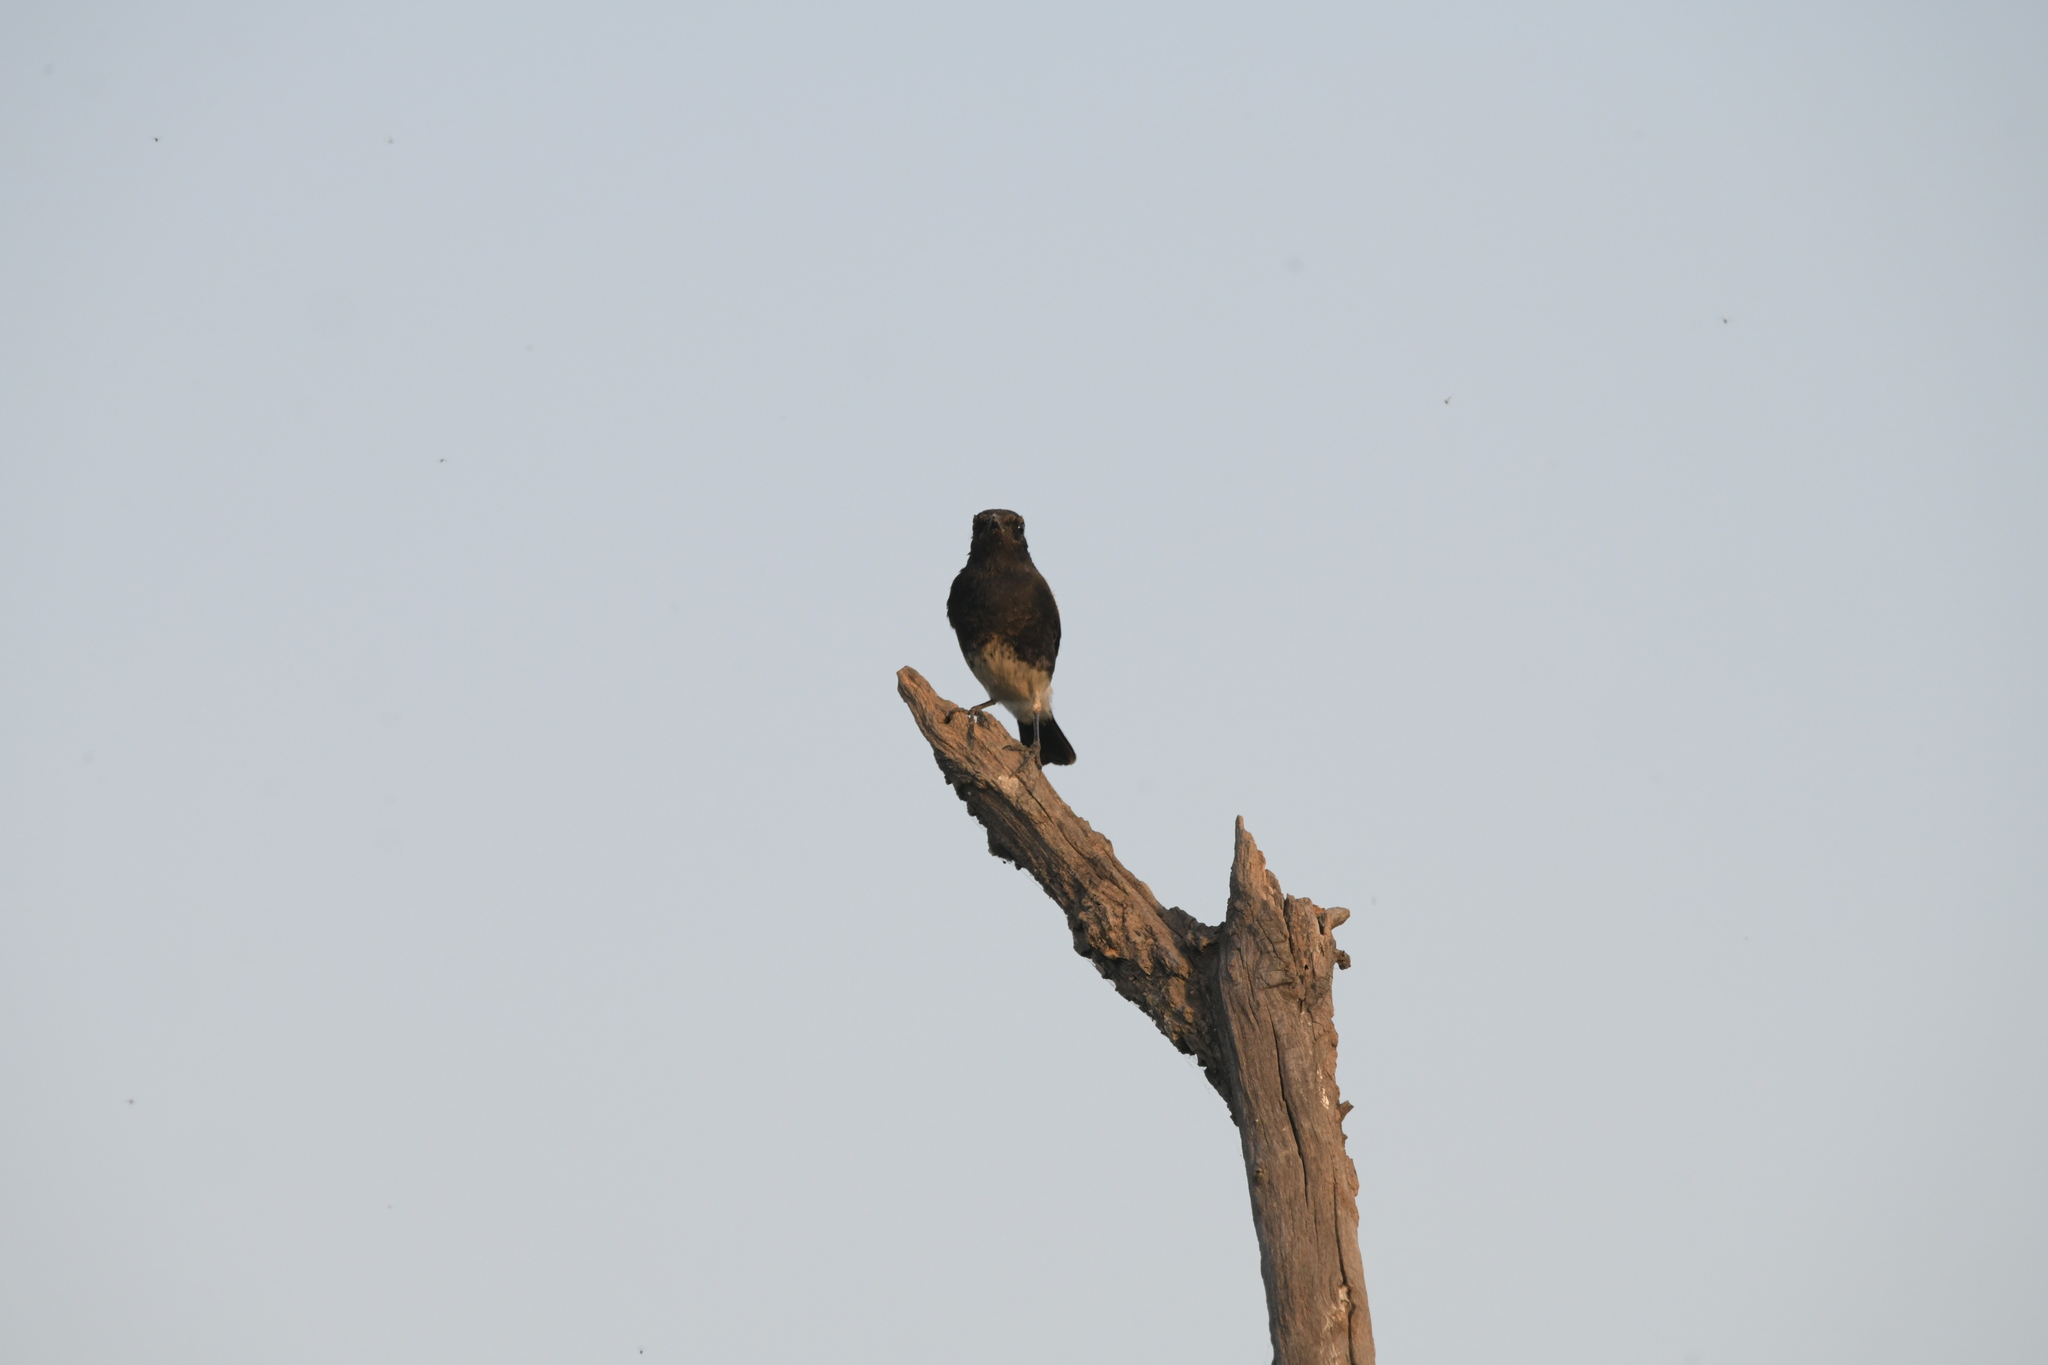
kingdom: Animalia
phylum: Chordata
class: Aves
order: Passeriformes
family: Muscicapidae
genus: Saxicola
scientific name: Saxicola caprata
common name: Pied bush chat
